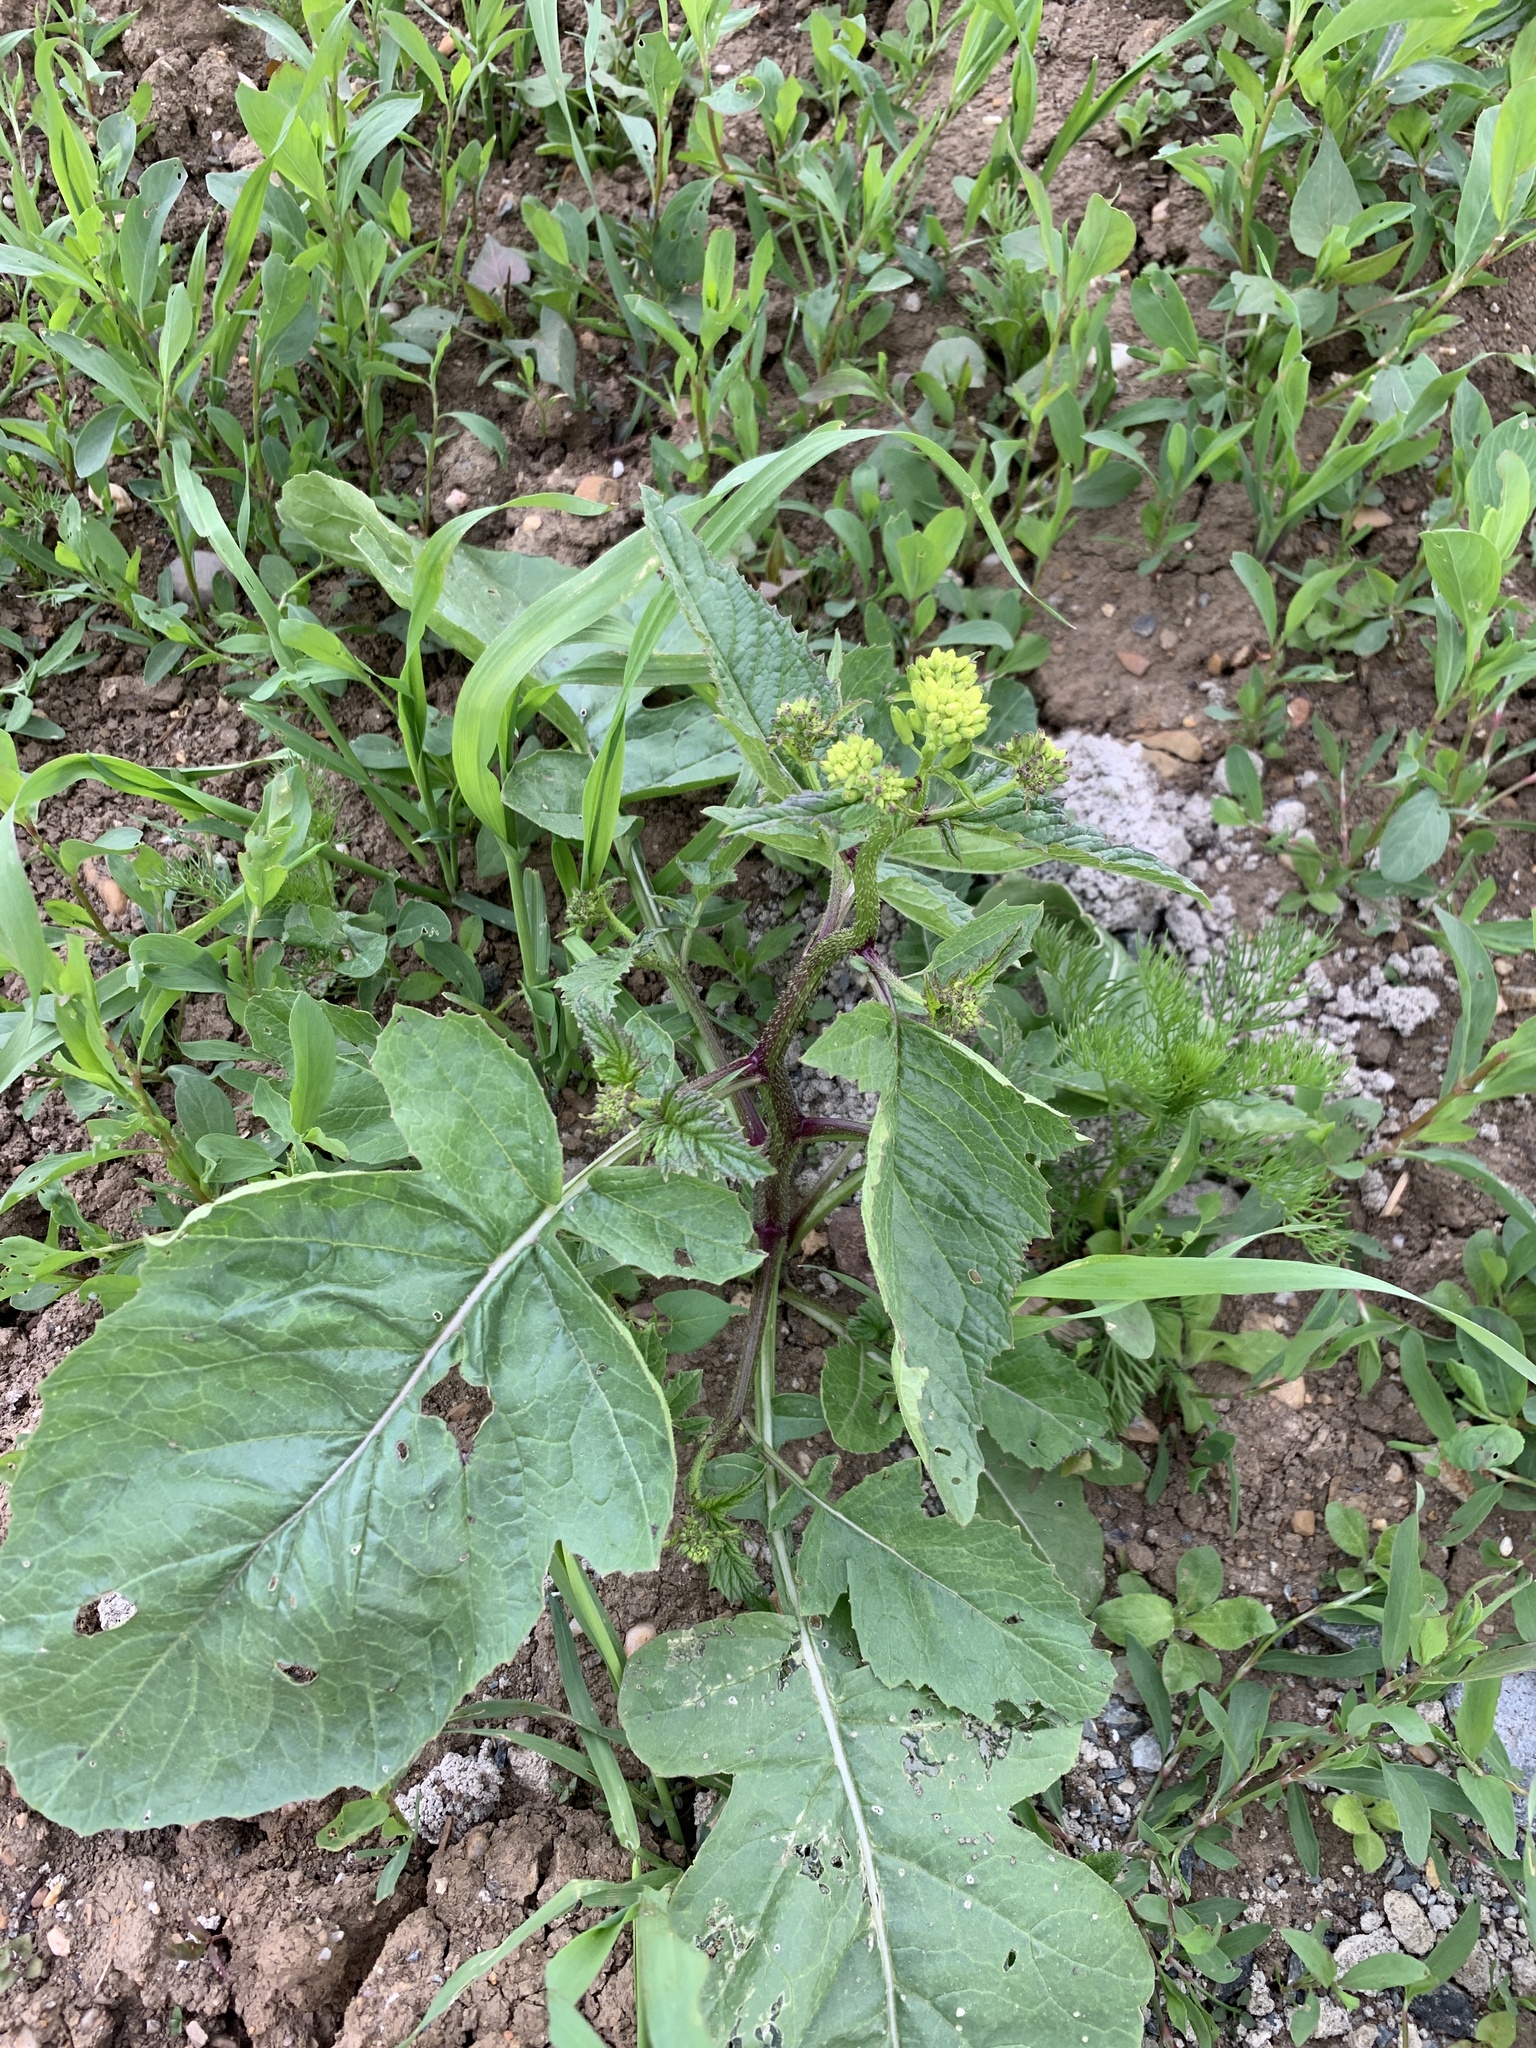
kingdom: Plantae
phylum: Tracheophyta
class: Magnoliopsida
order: Brassicales
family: Brassicaceae
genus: Sinapis
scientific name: Sinapis arvensis
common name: Charlock
